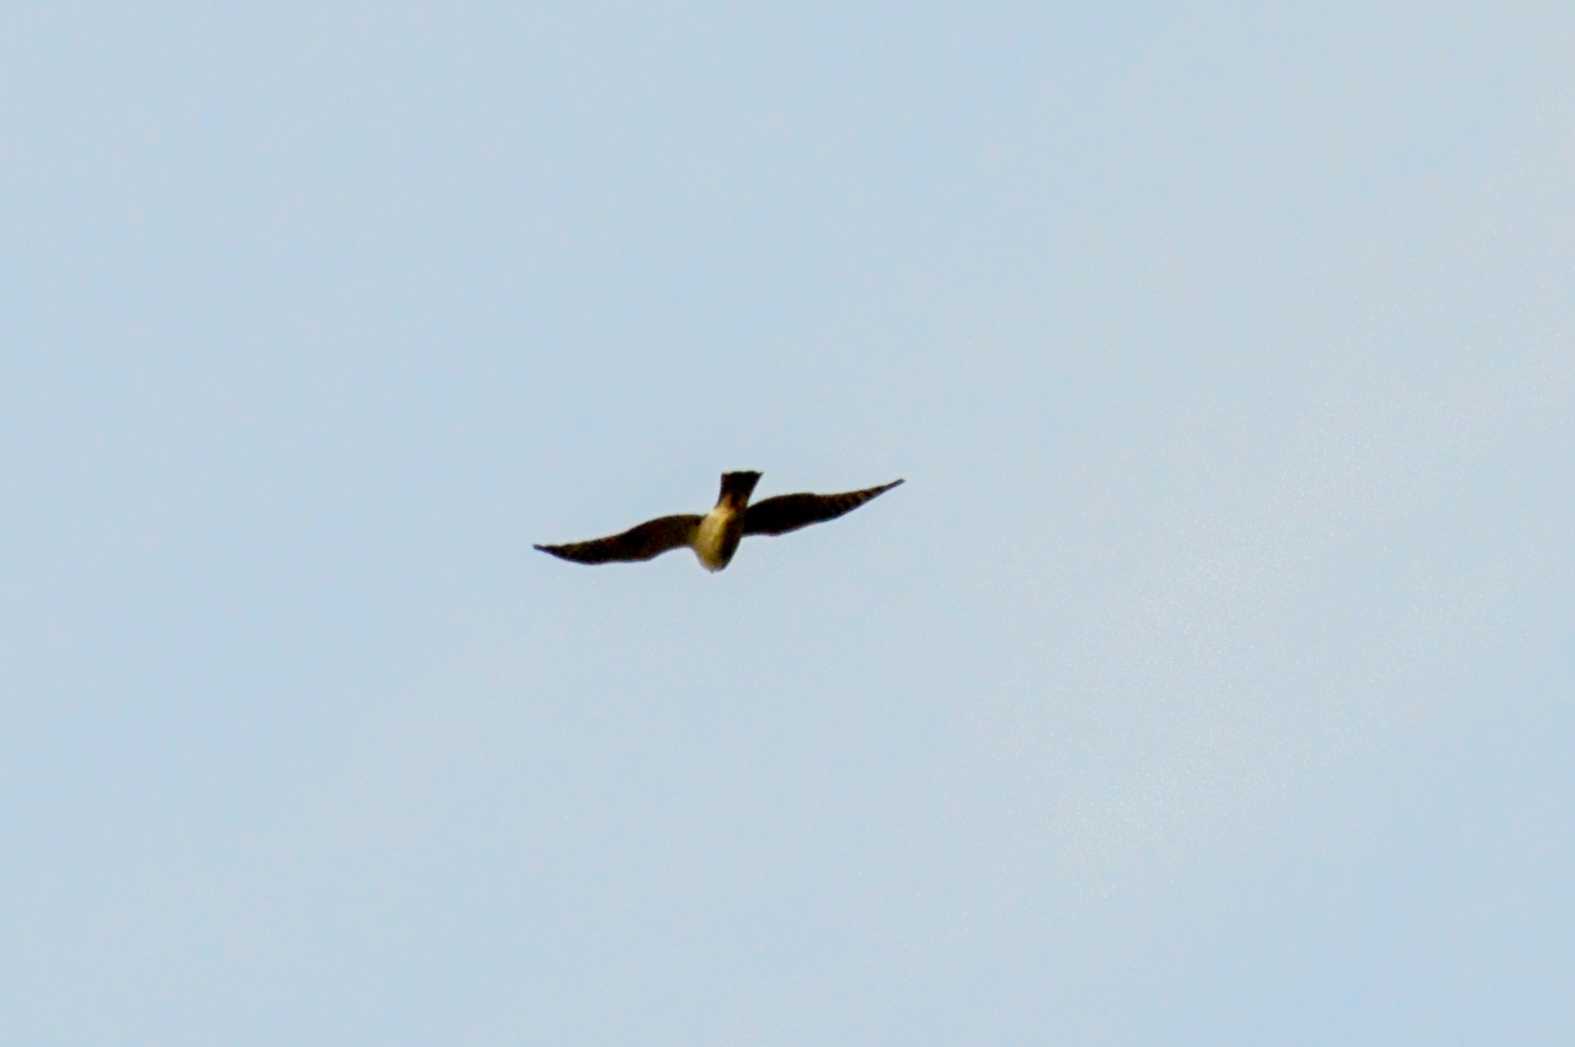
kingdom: Animalia
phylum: Chordata
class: Aves
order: Accipitriformes
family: Accipitridae
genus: Accipiter
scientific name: Accipiter nisus
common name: Eurasian sparrowhawk
